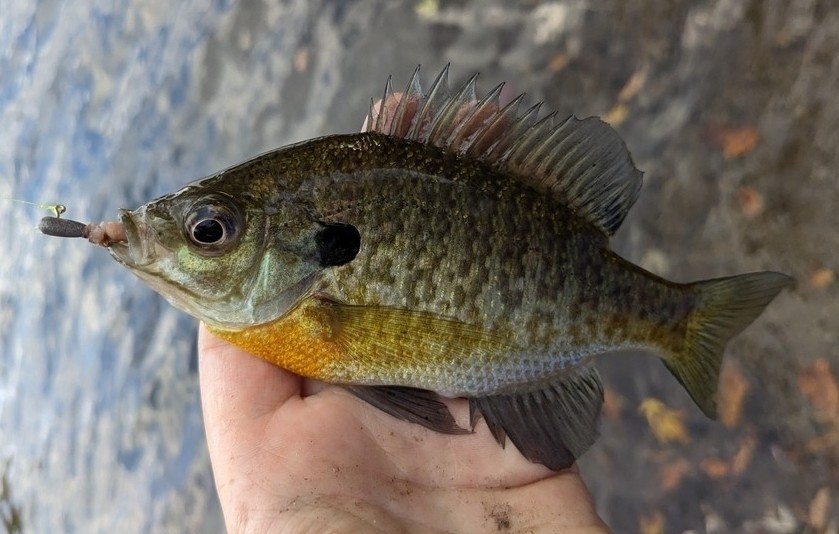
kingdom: Animalia
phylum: Chordata
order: Perciformes
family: Centrarchidae
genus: Lepomis
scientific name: Lepomis macrochirus
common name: Bluegill
